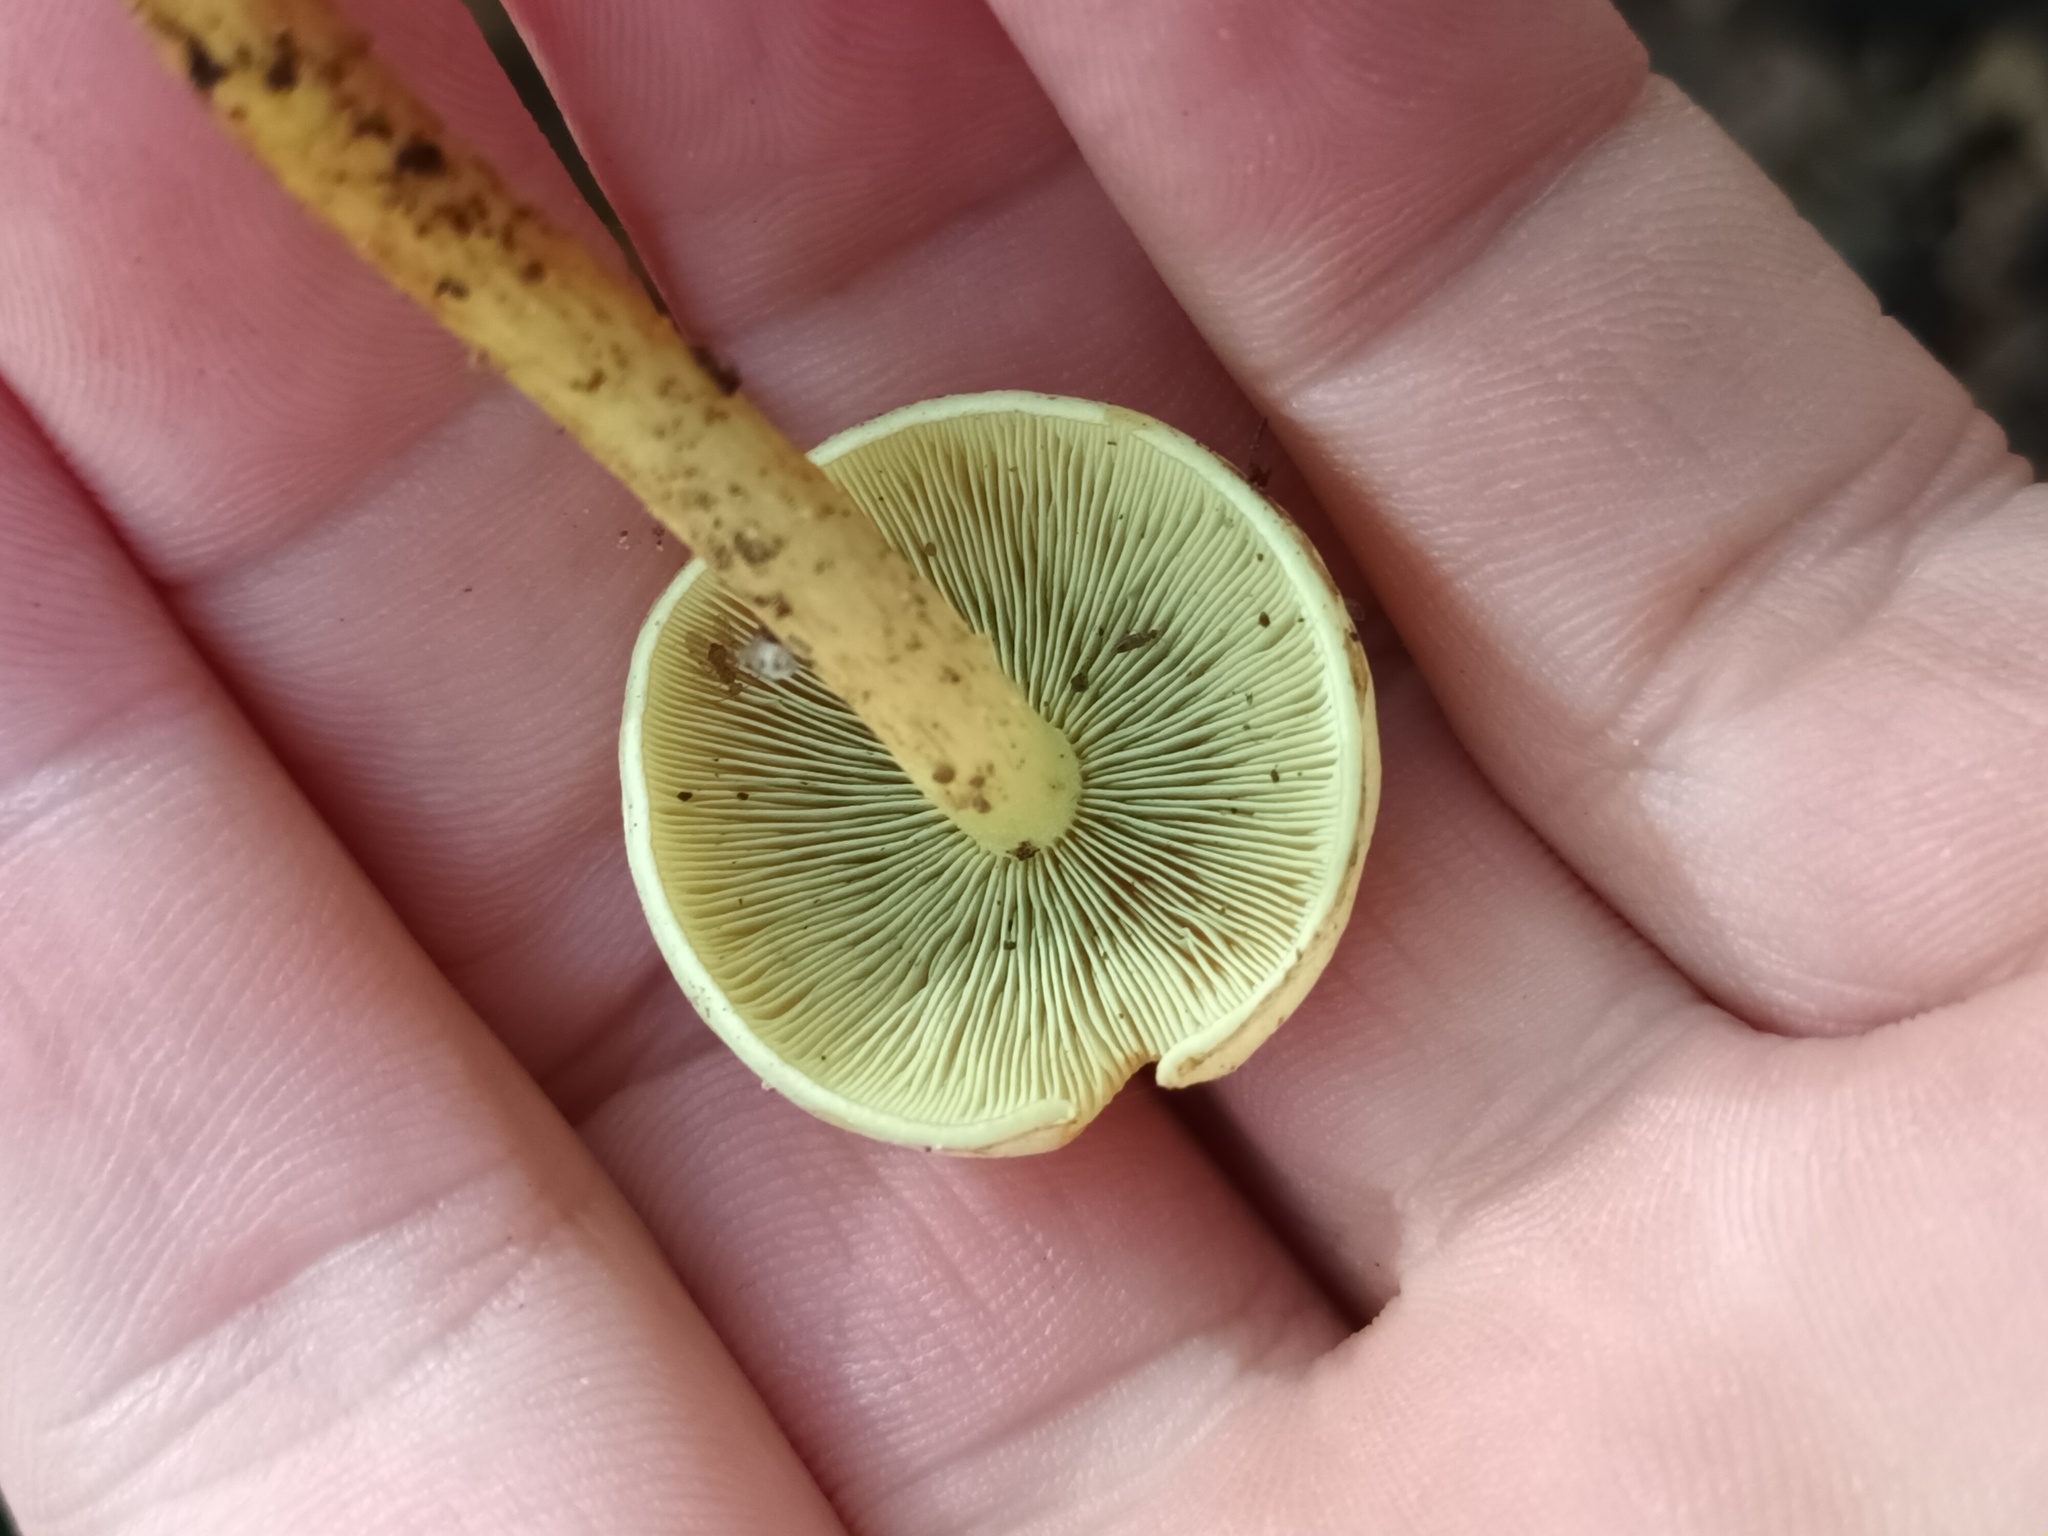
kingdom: Fungi
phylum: Basidiomycota
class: Agaricomycetes
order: Agaricales
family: Strophariaceae
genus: Hypholoma
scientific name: Hypholoma fasciculare
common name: Sulphur tuft
